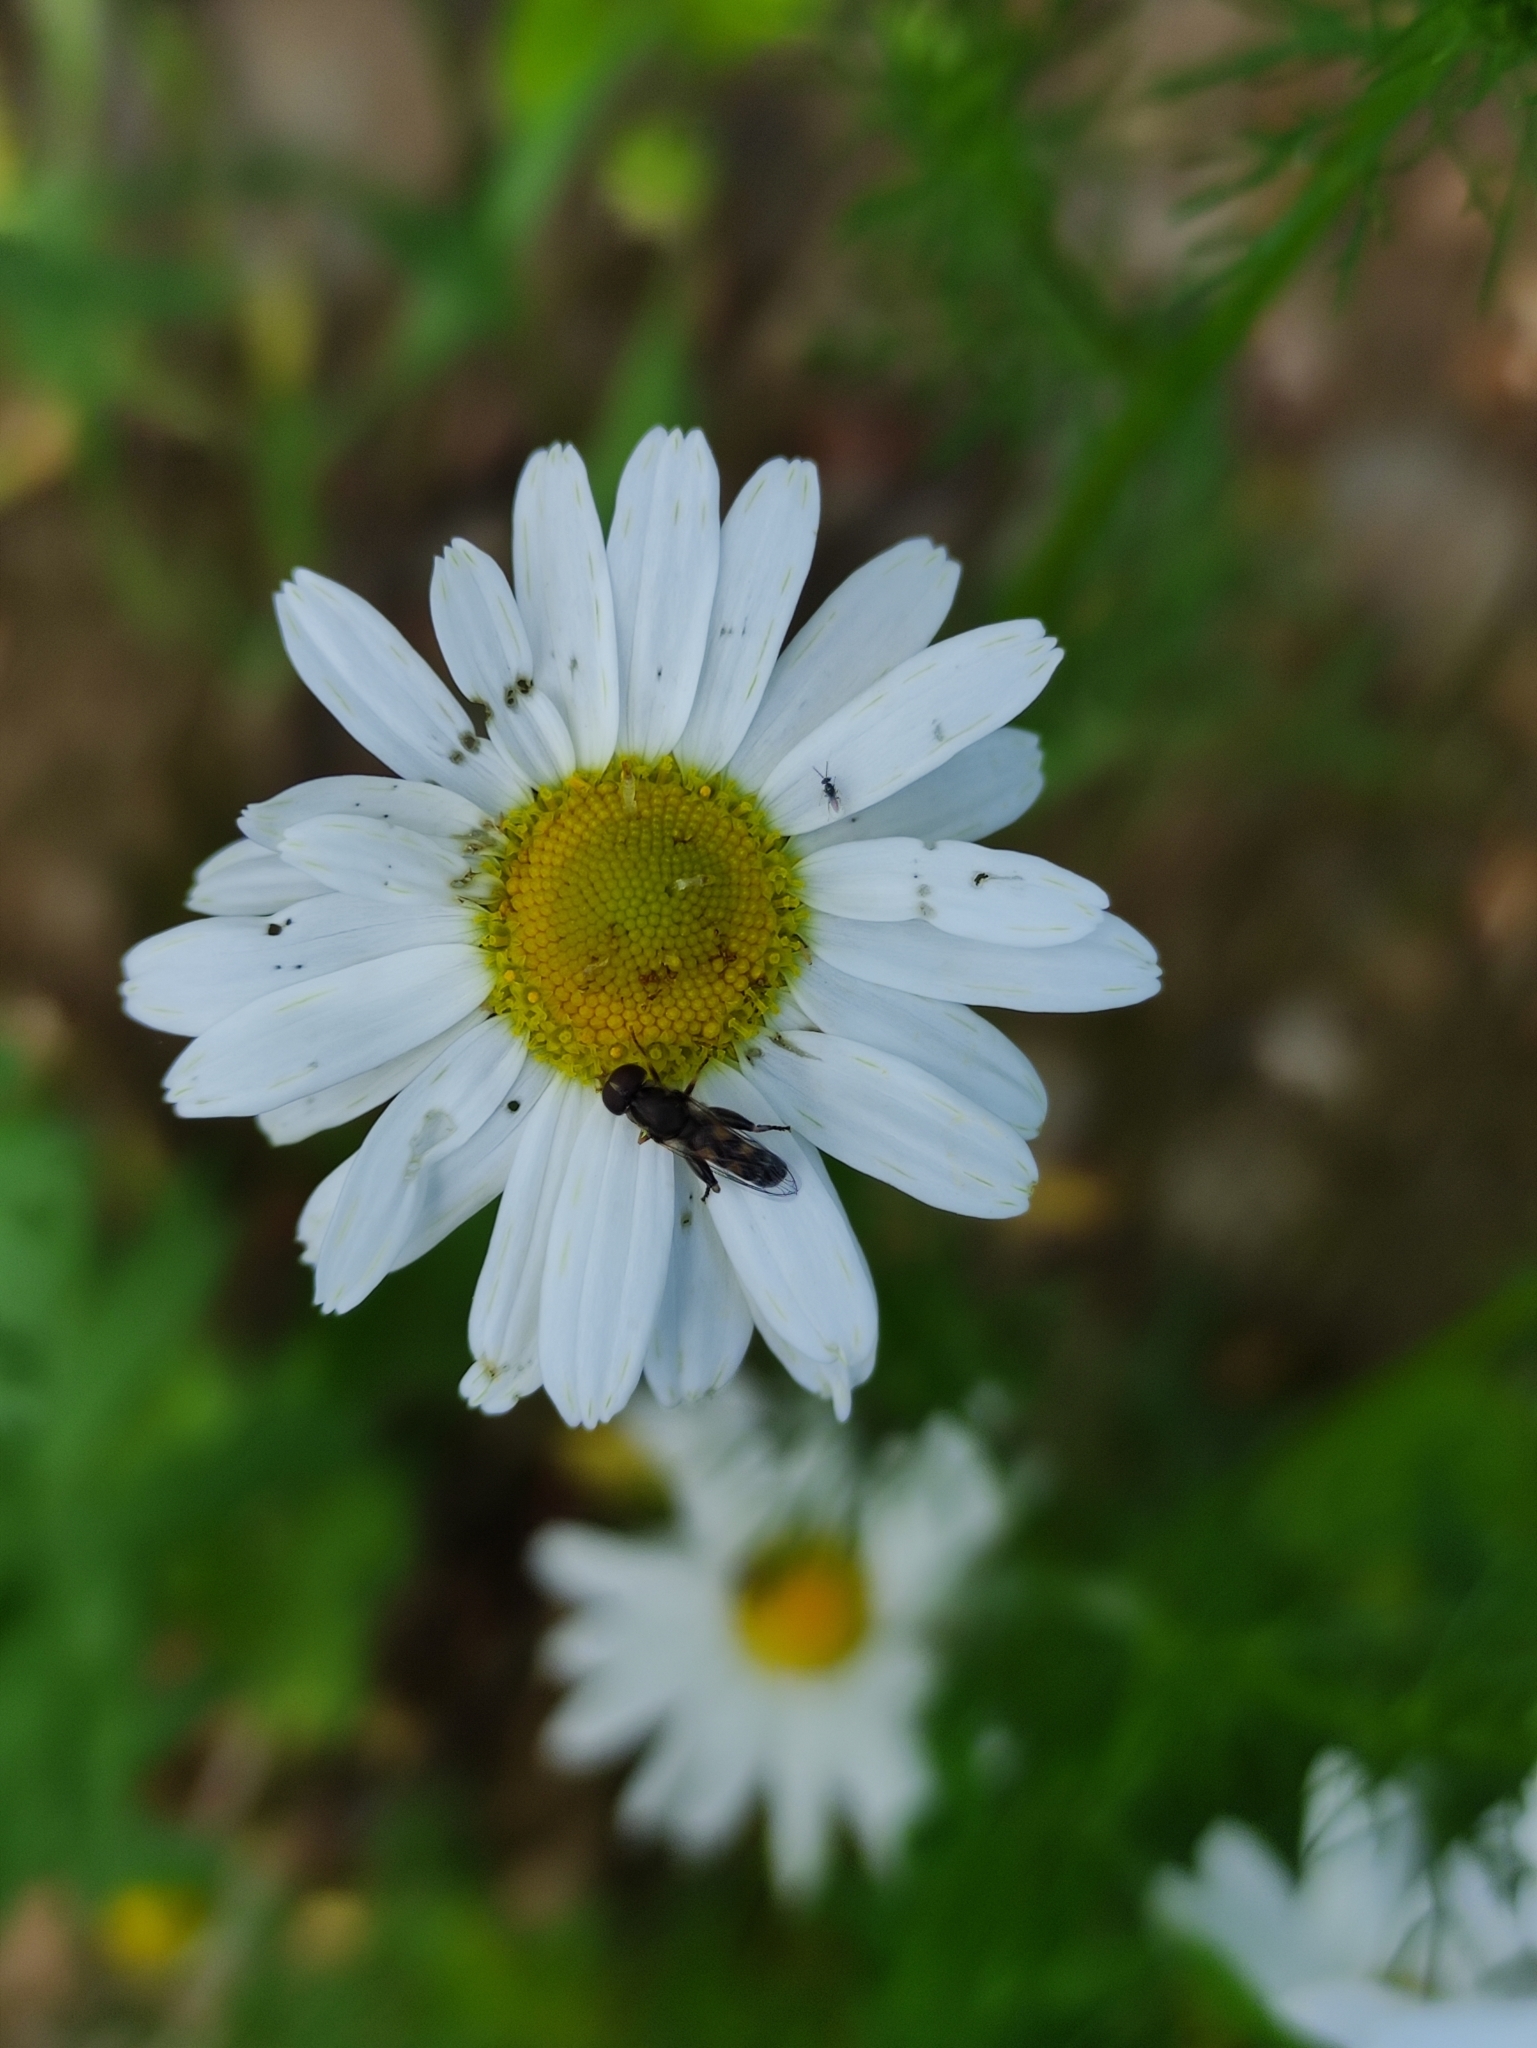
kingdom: Animalia
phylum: Arthropoda
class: Insecta
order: Diptera
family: Syrphidae
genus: Syritta
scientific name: Syritta pipiens
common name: Hover fly
